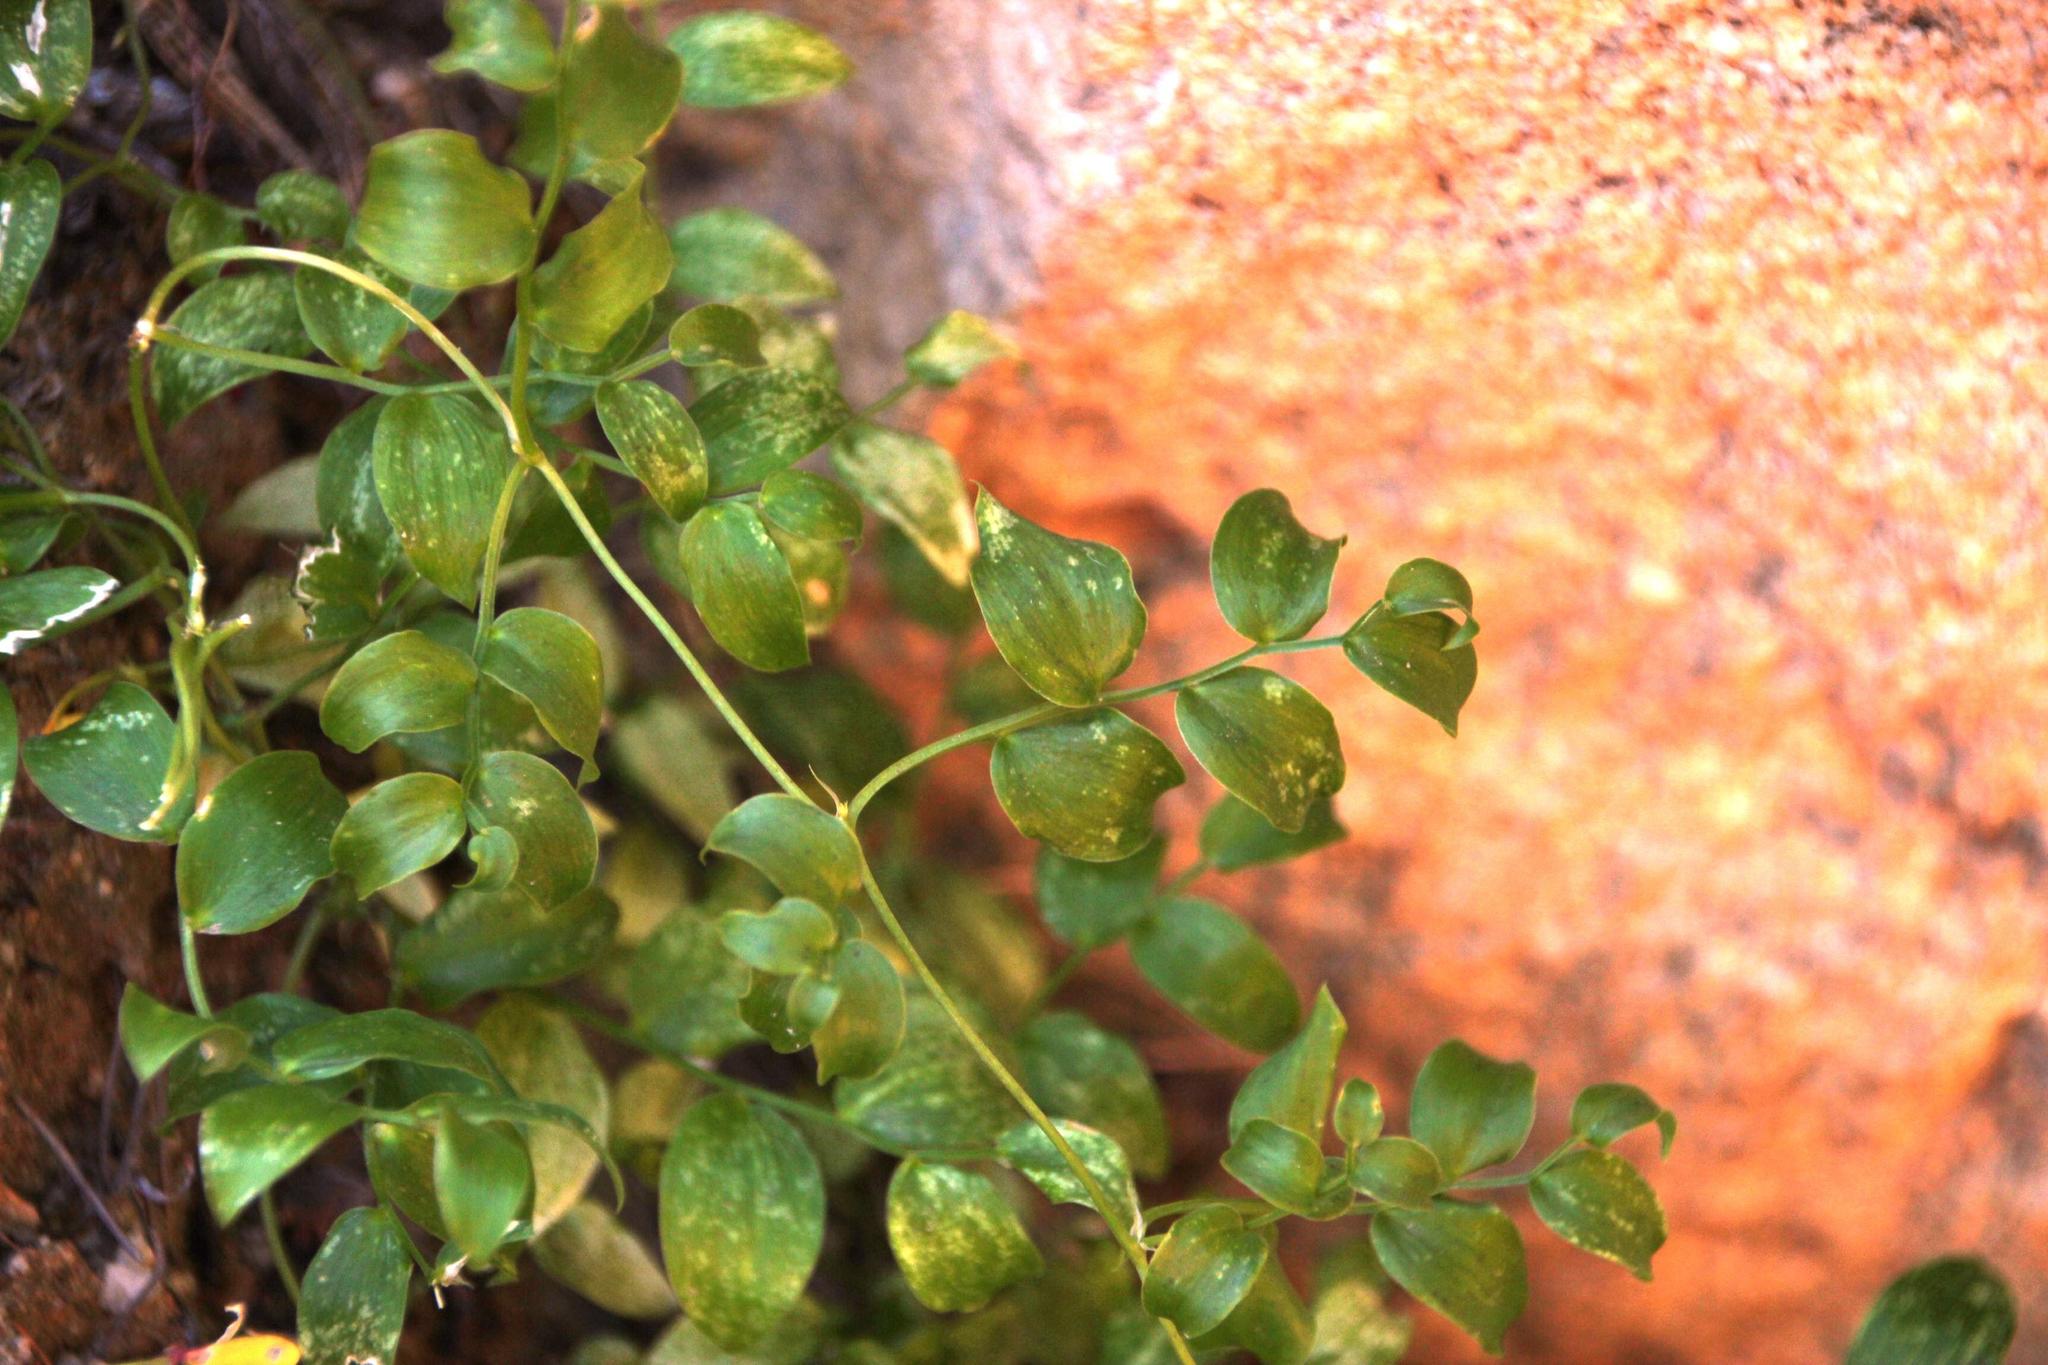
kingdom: Plantae
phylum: Tracheophyta
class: Liliopsida
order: Asparagales
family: Asparagaceae
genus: Asparagus
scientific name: Asparagus asparagoides
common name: African asparagus fern
